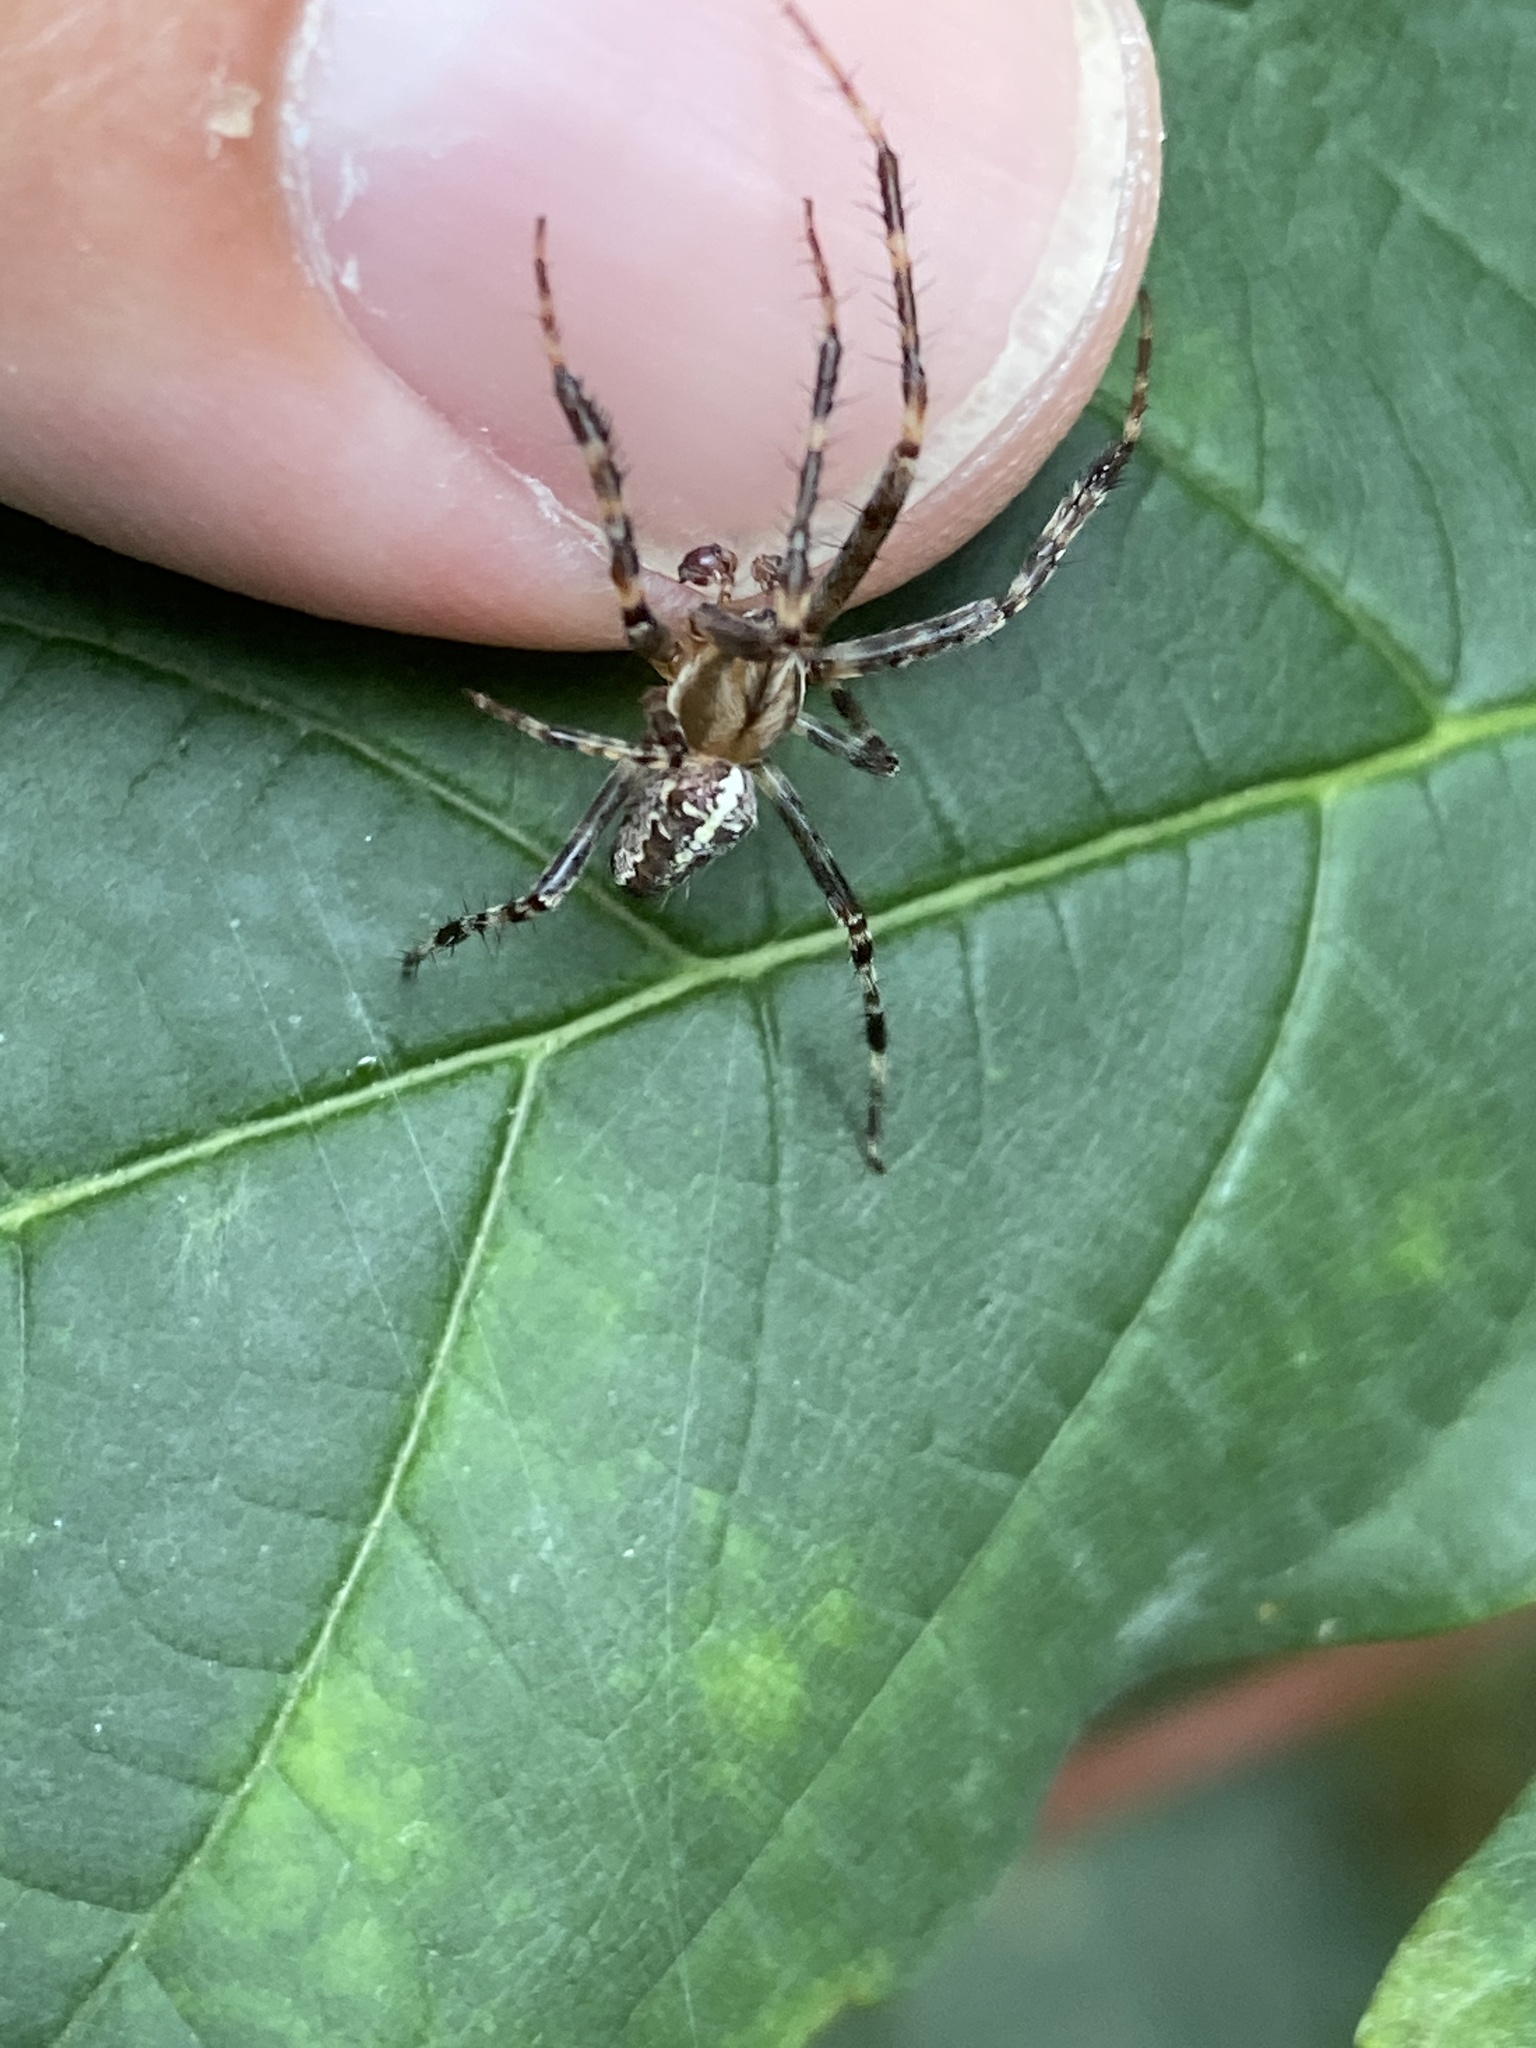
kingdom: Animalia
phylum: Arthropoda
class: Arachnida
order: Araneae
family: Araneidae
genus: Araneus
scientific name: Araneus diadematus
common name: Cross orbweaver
